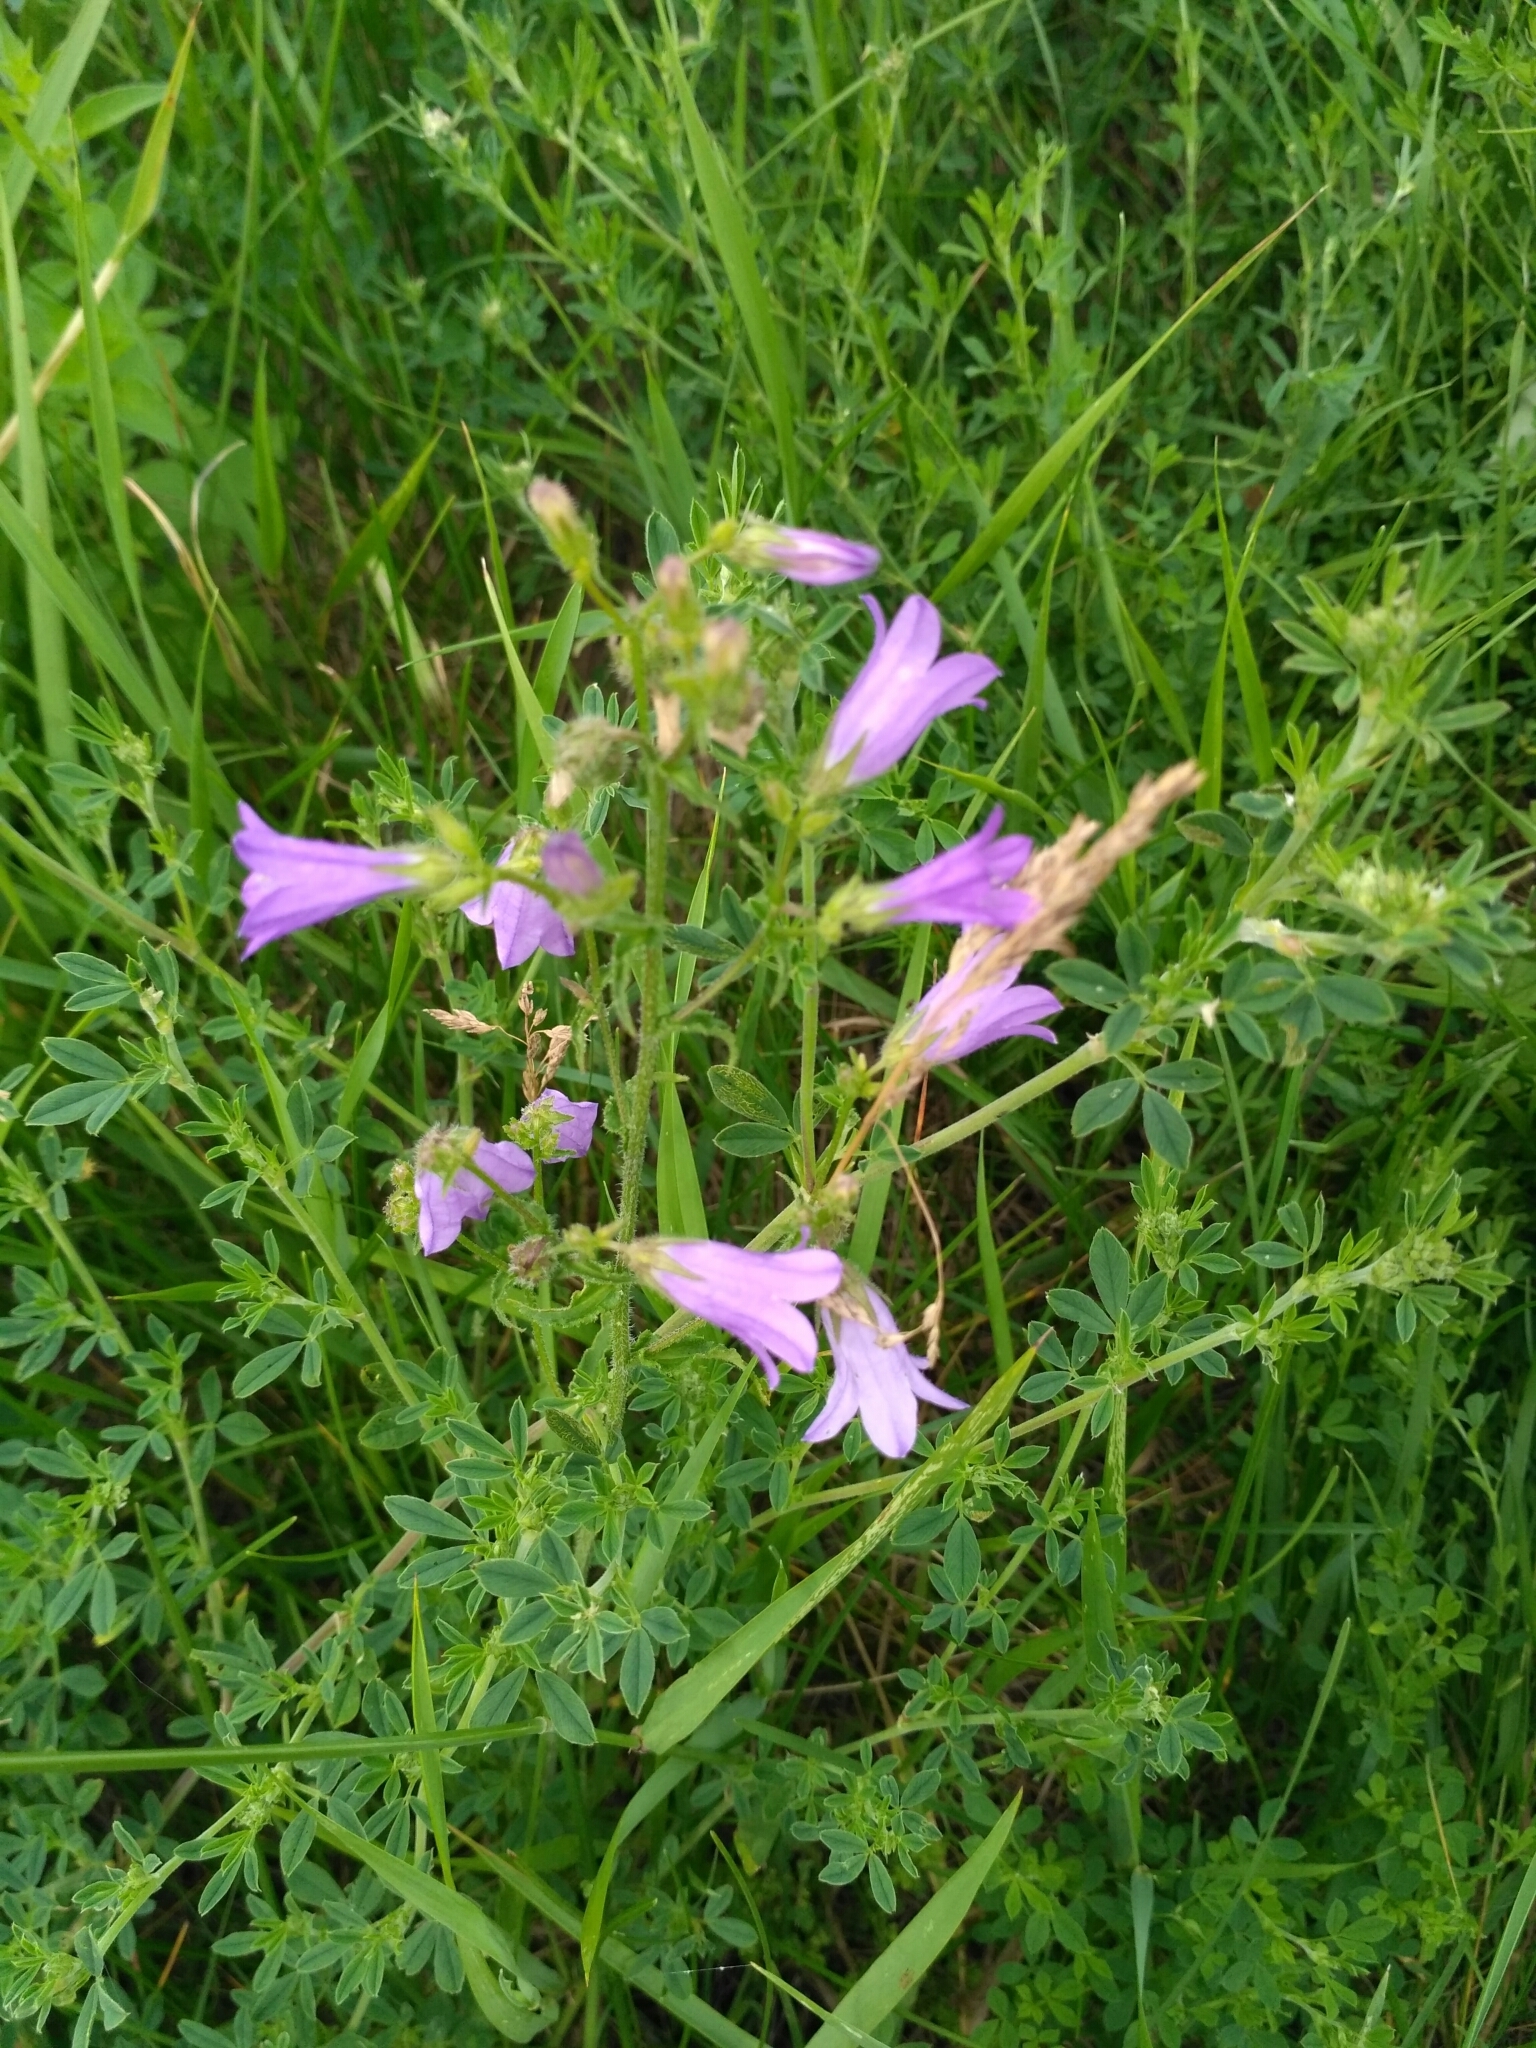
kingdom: Plantae
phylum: Tracheophyta
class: Magnoliopsida
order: Asterales
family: Campanulaceae
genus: Campanula
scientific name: Campanula sibirica
